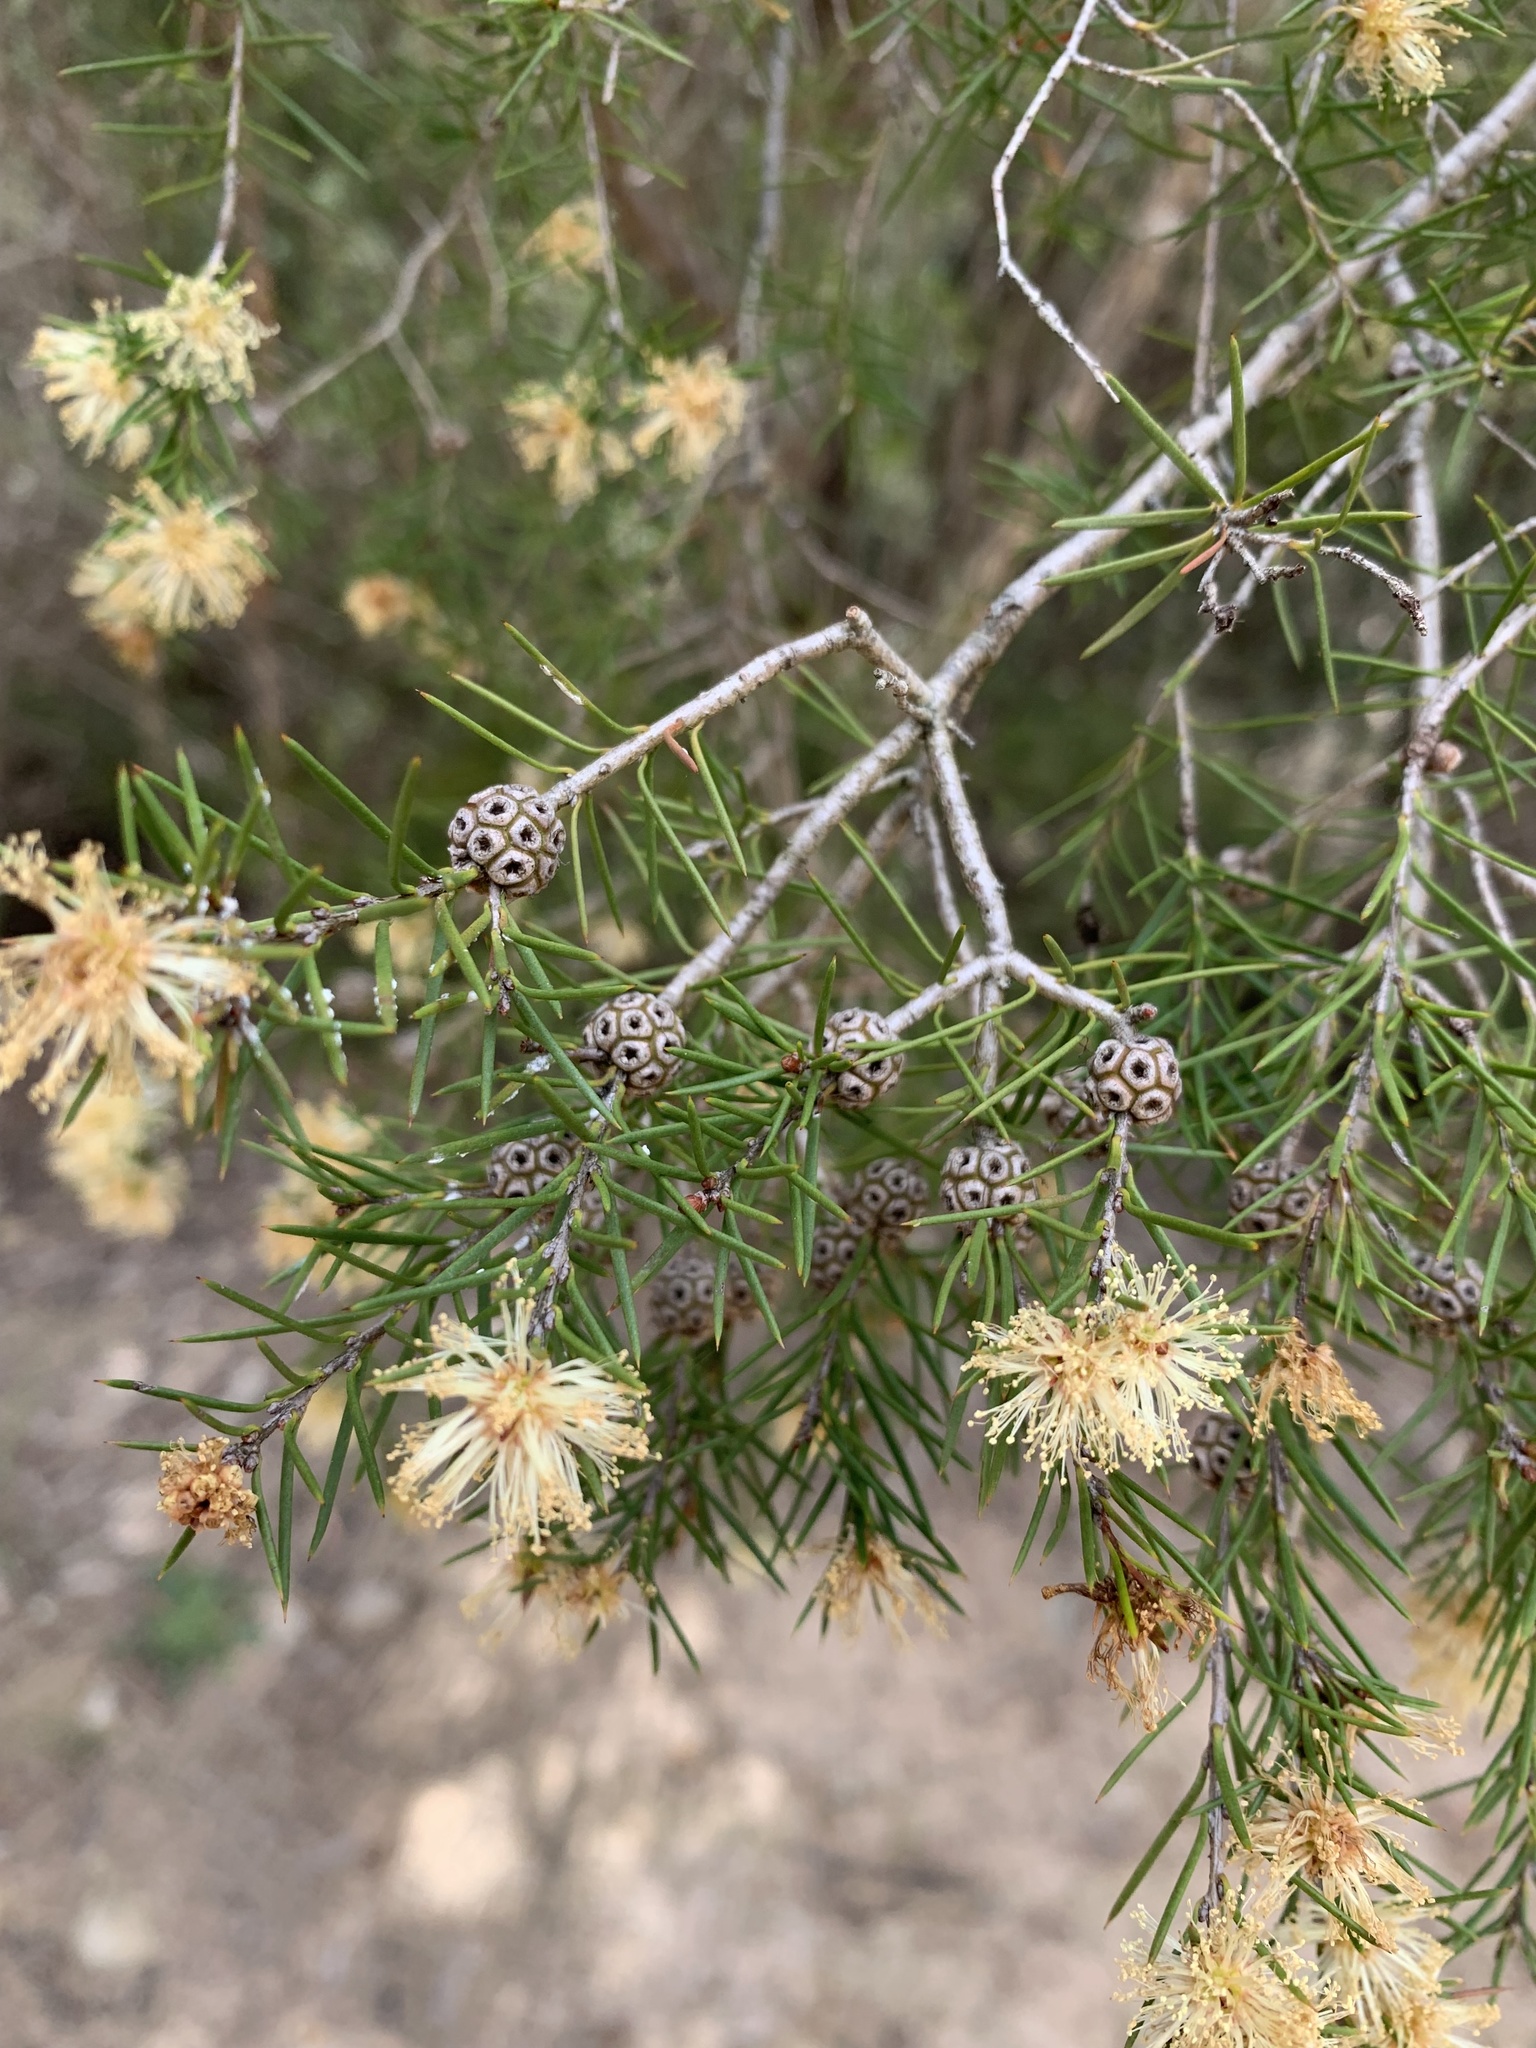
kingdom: Plantae
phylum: Tracheophyta
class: Magnoliopsida
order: Myrtales
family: Myrtaceae
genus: Melaleuca
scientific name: Melaleuca nodosa
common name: Prickly-leaf paperbark
